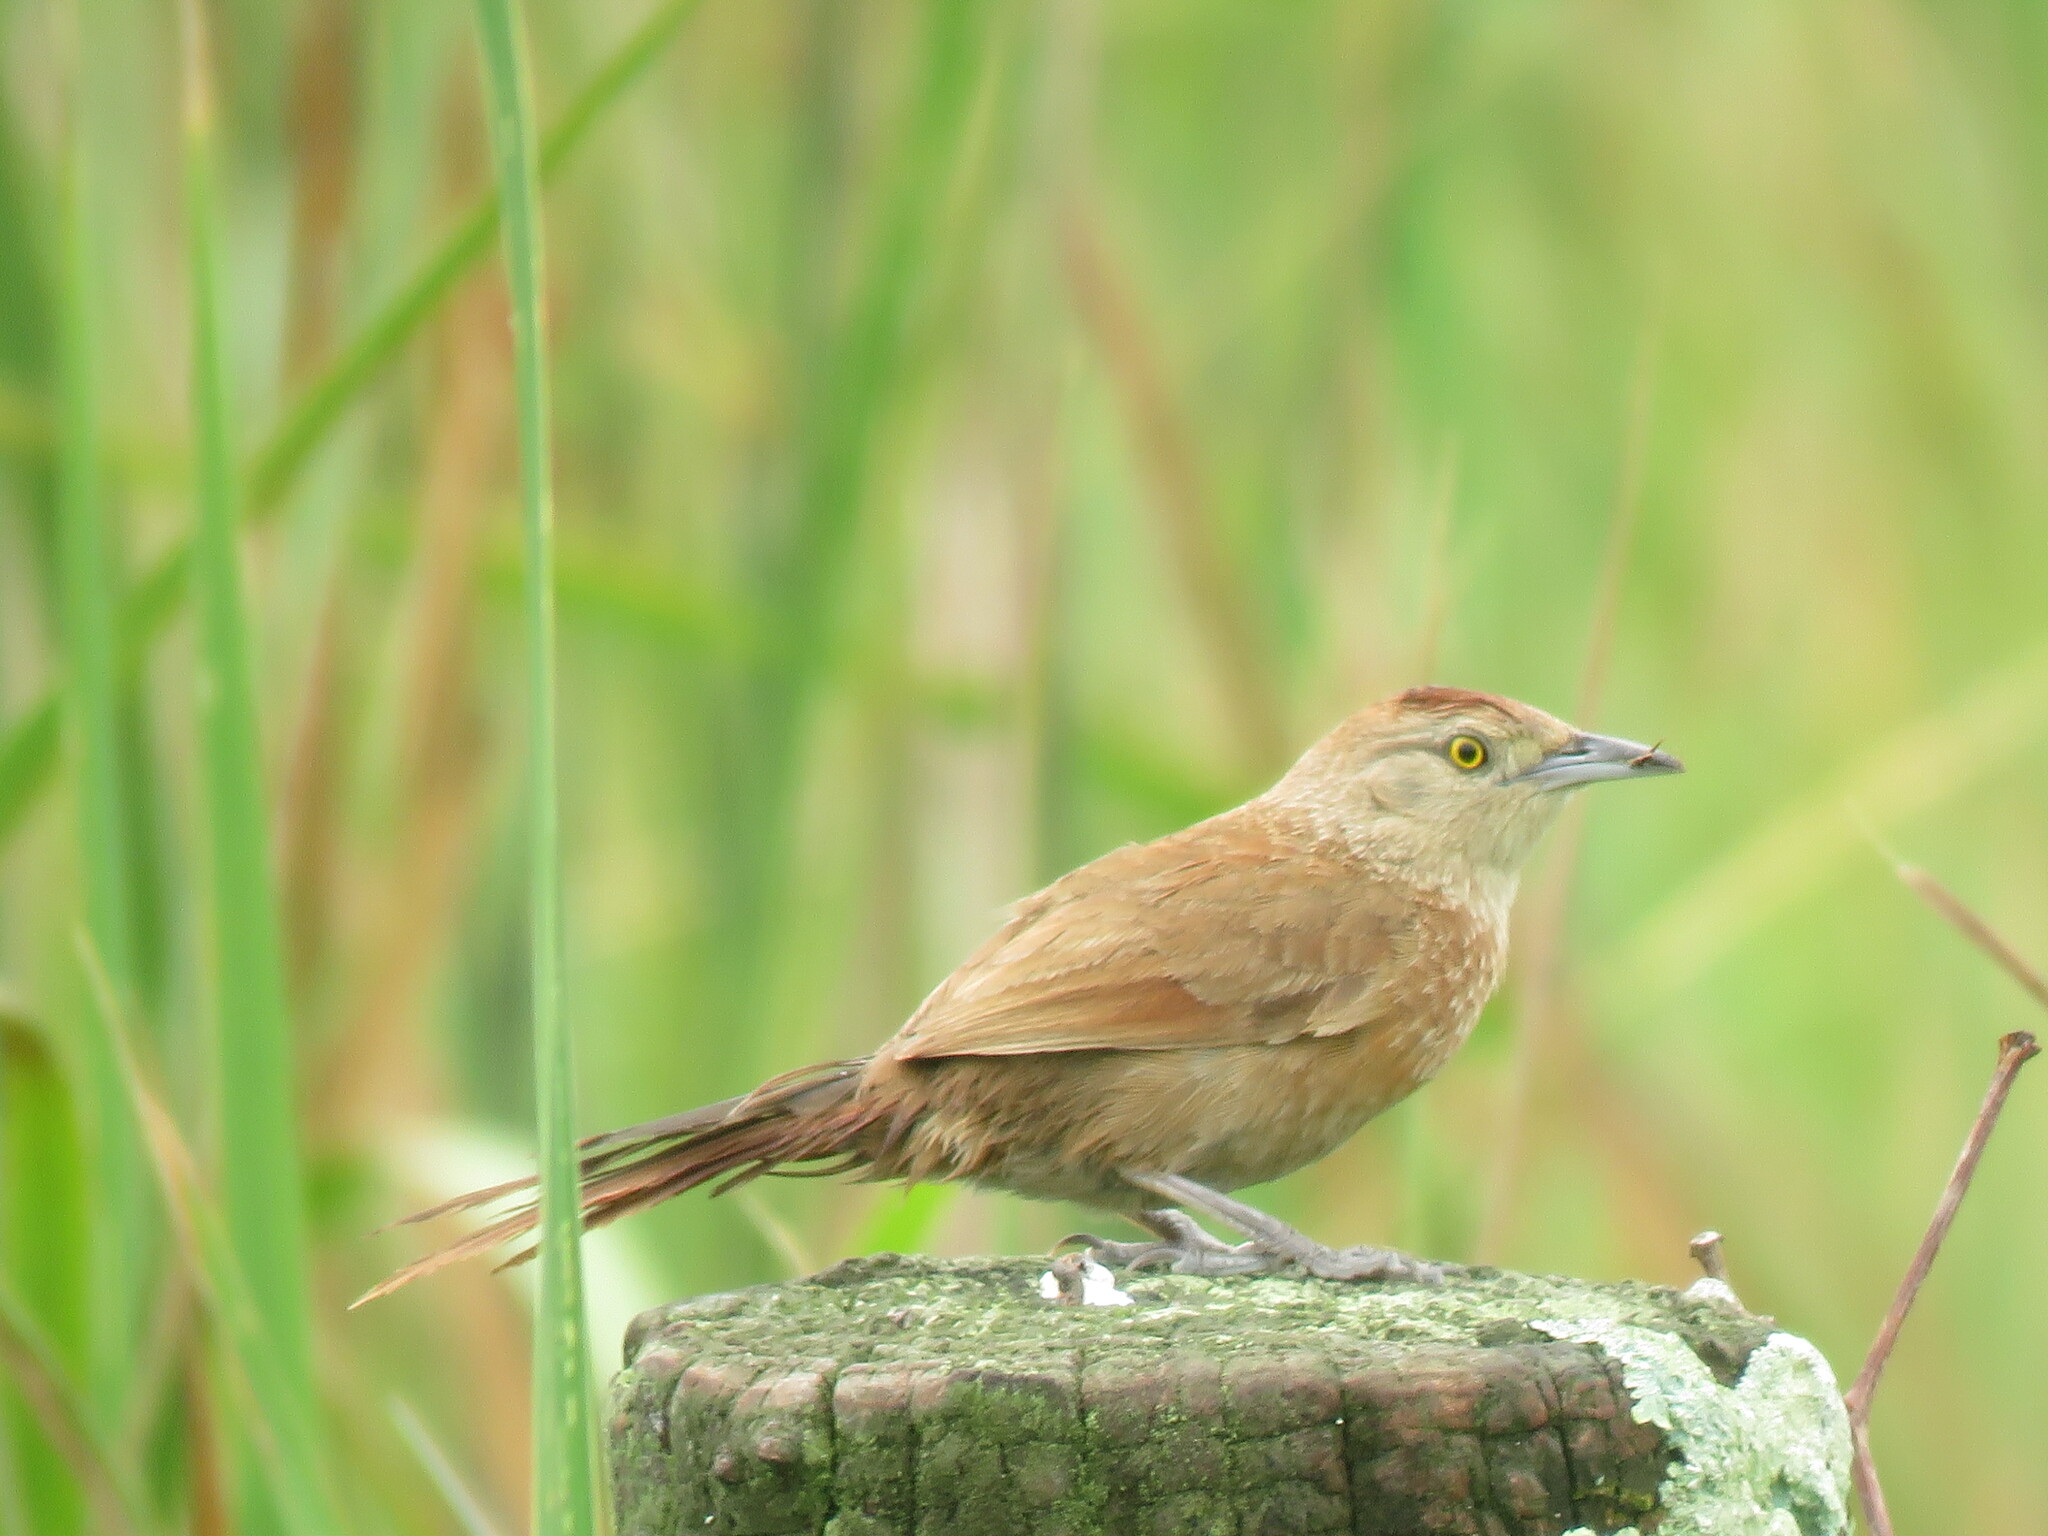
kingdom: Animalia
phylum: Chordata
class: Aves
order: Passeriformes
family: Furnariidae
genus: Phacellodomus
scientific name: Phacellodomus striaticollis
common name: Freckle-breasted thornbird
